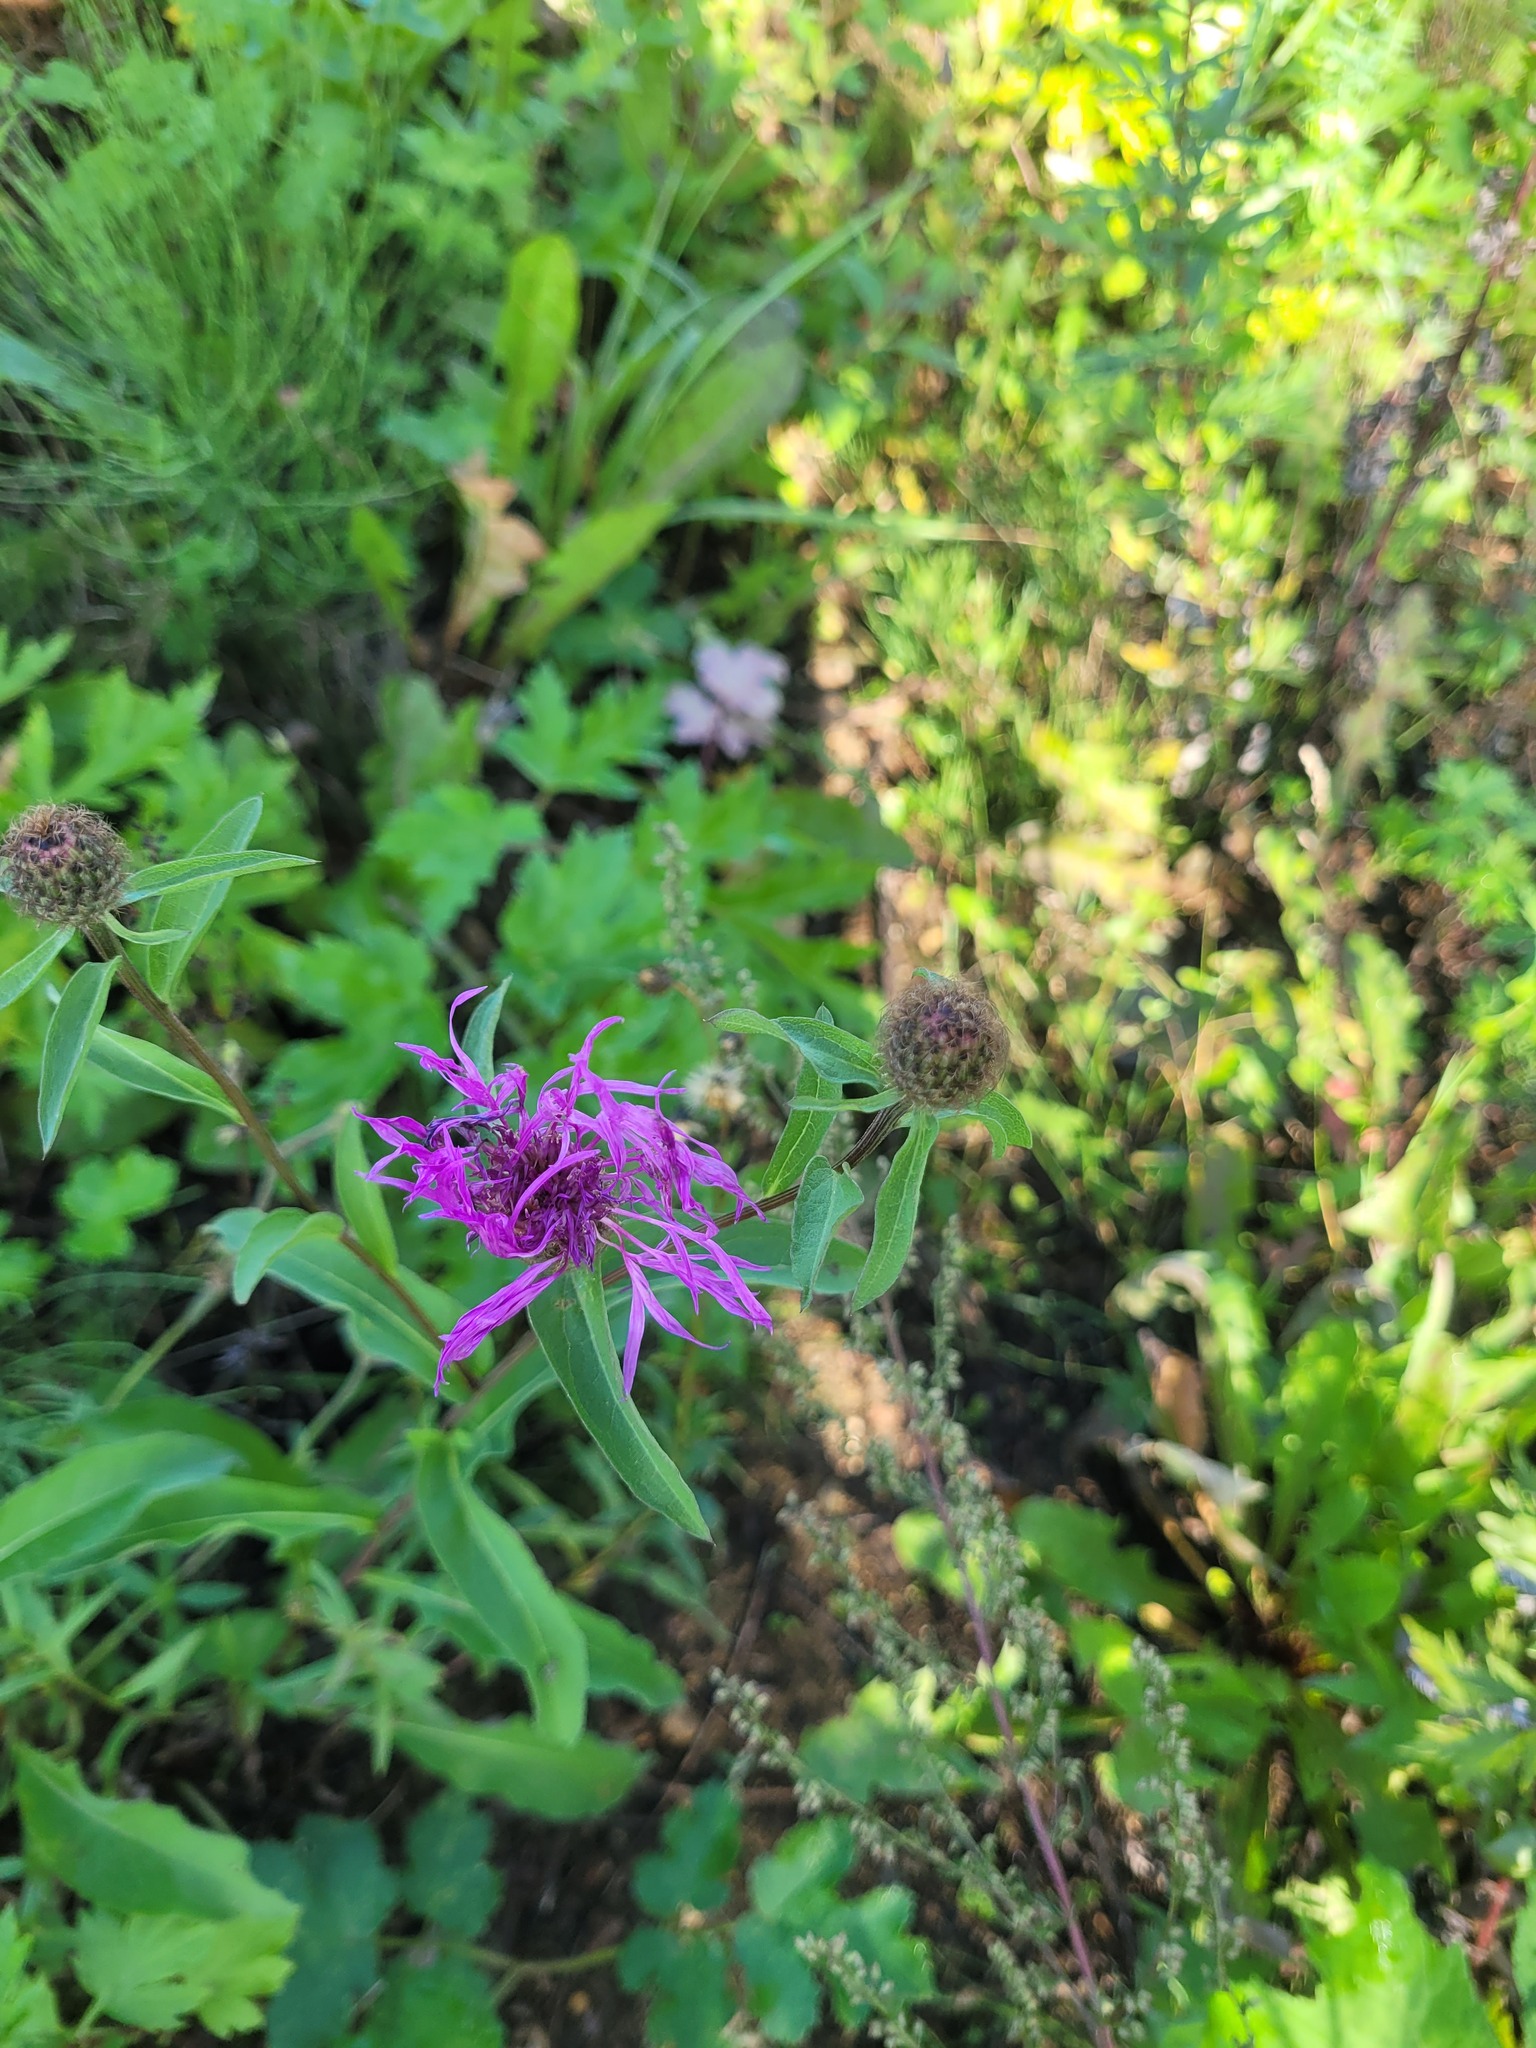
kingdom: Plantae
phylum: Tracheophyta
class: Magnoliopsida
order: Asterales
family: Asteraceae
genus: Centaurea
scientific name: Centaurea pseudophrygia
